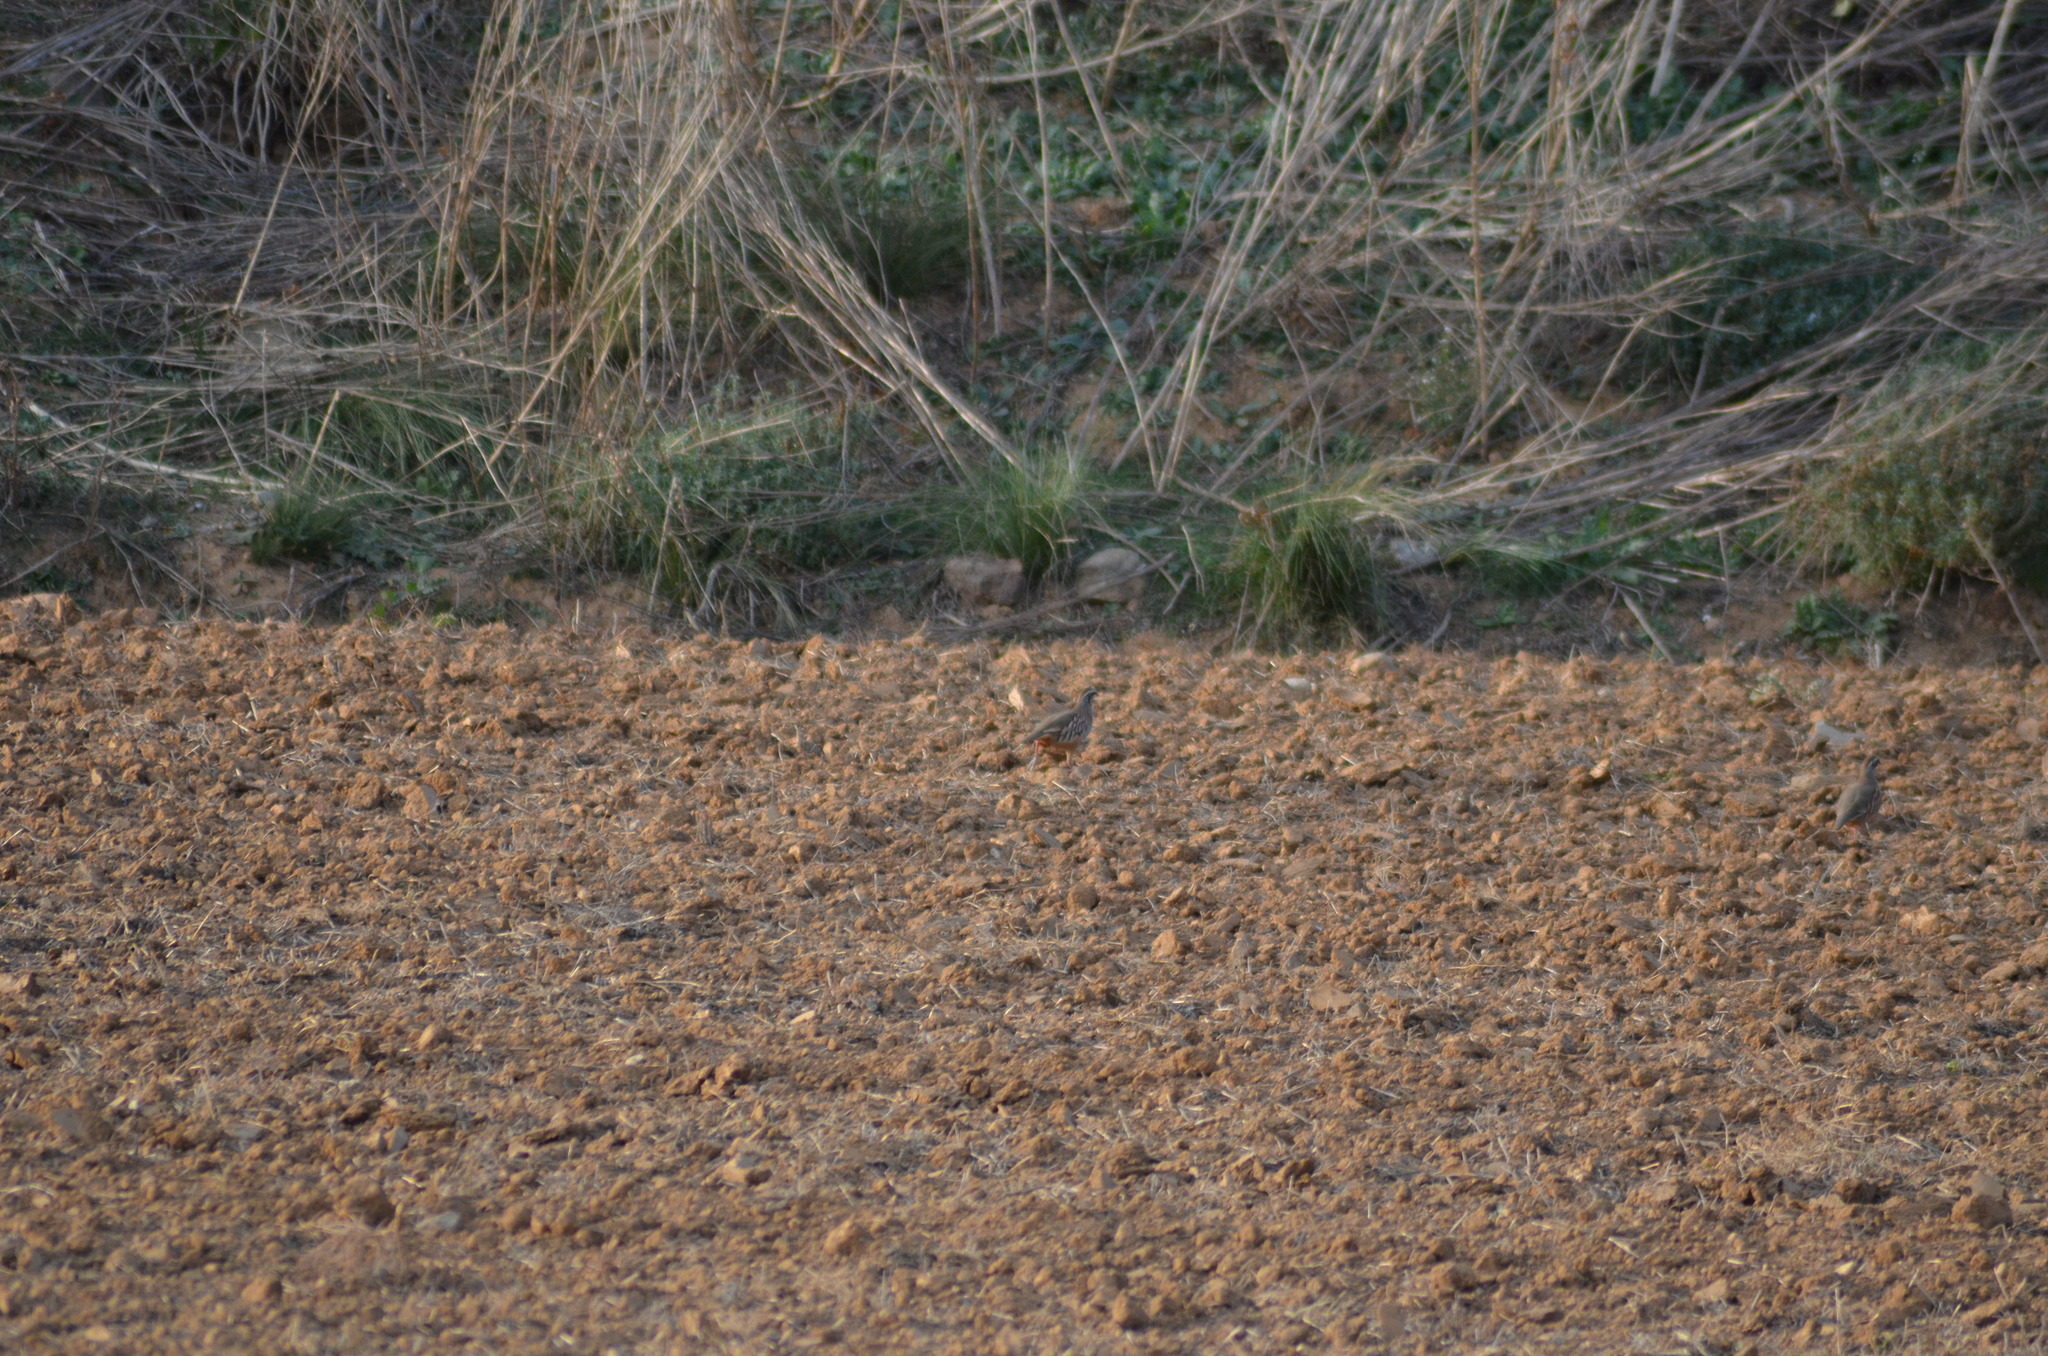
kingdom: Animalia
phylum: Chordata
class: Aves
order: Galliformes
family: Phasianidae
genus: Alectoris
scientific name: Alectoris rufa
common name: Red-legged partridge
